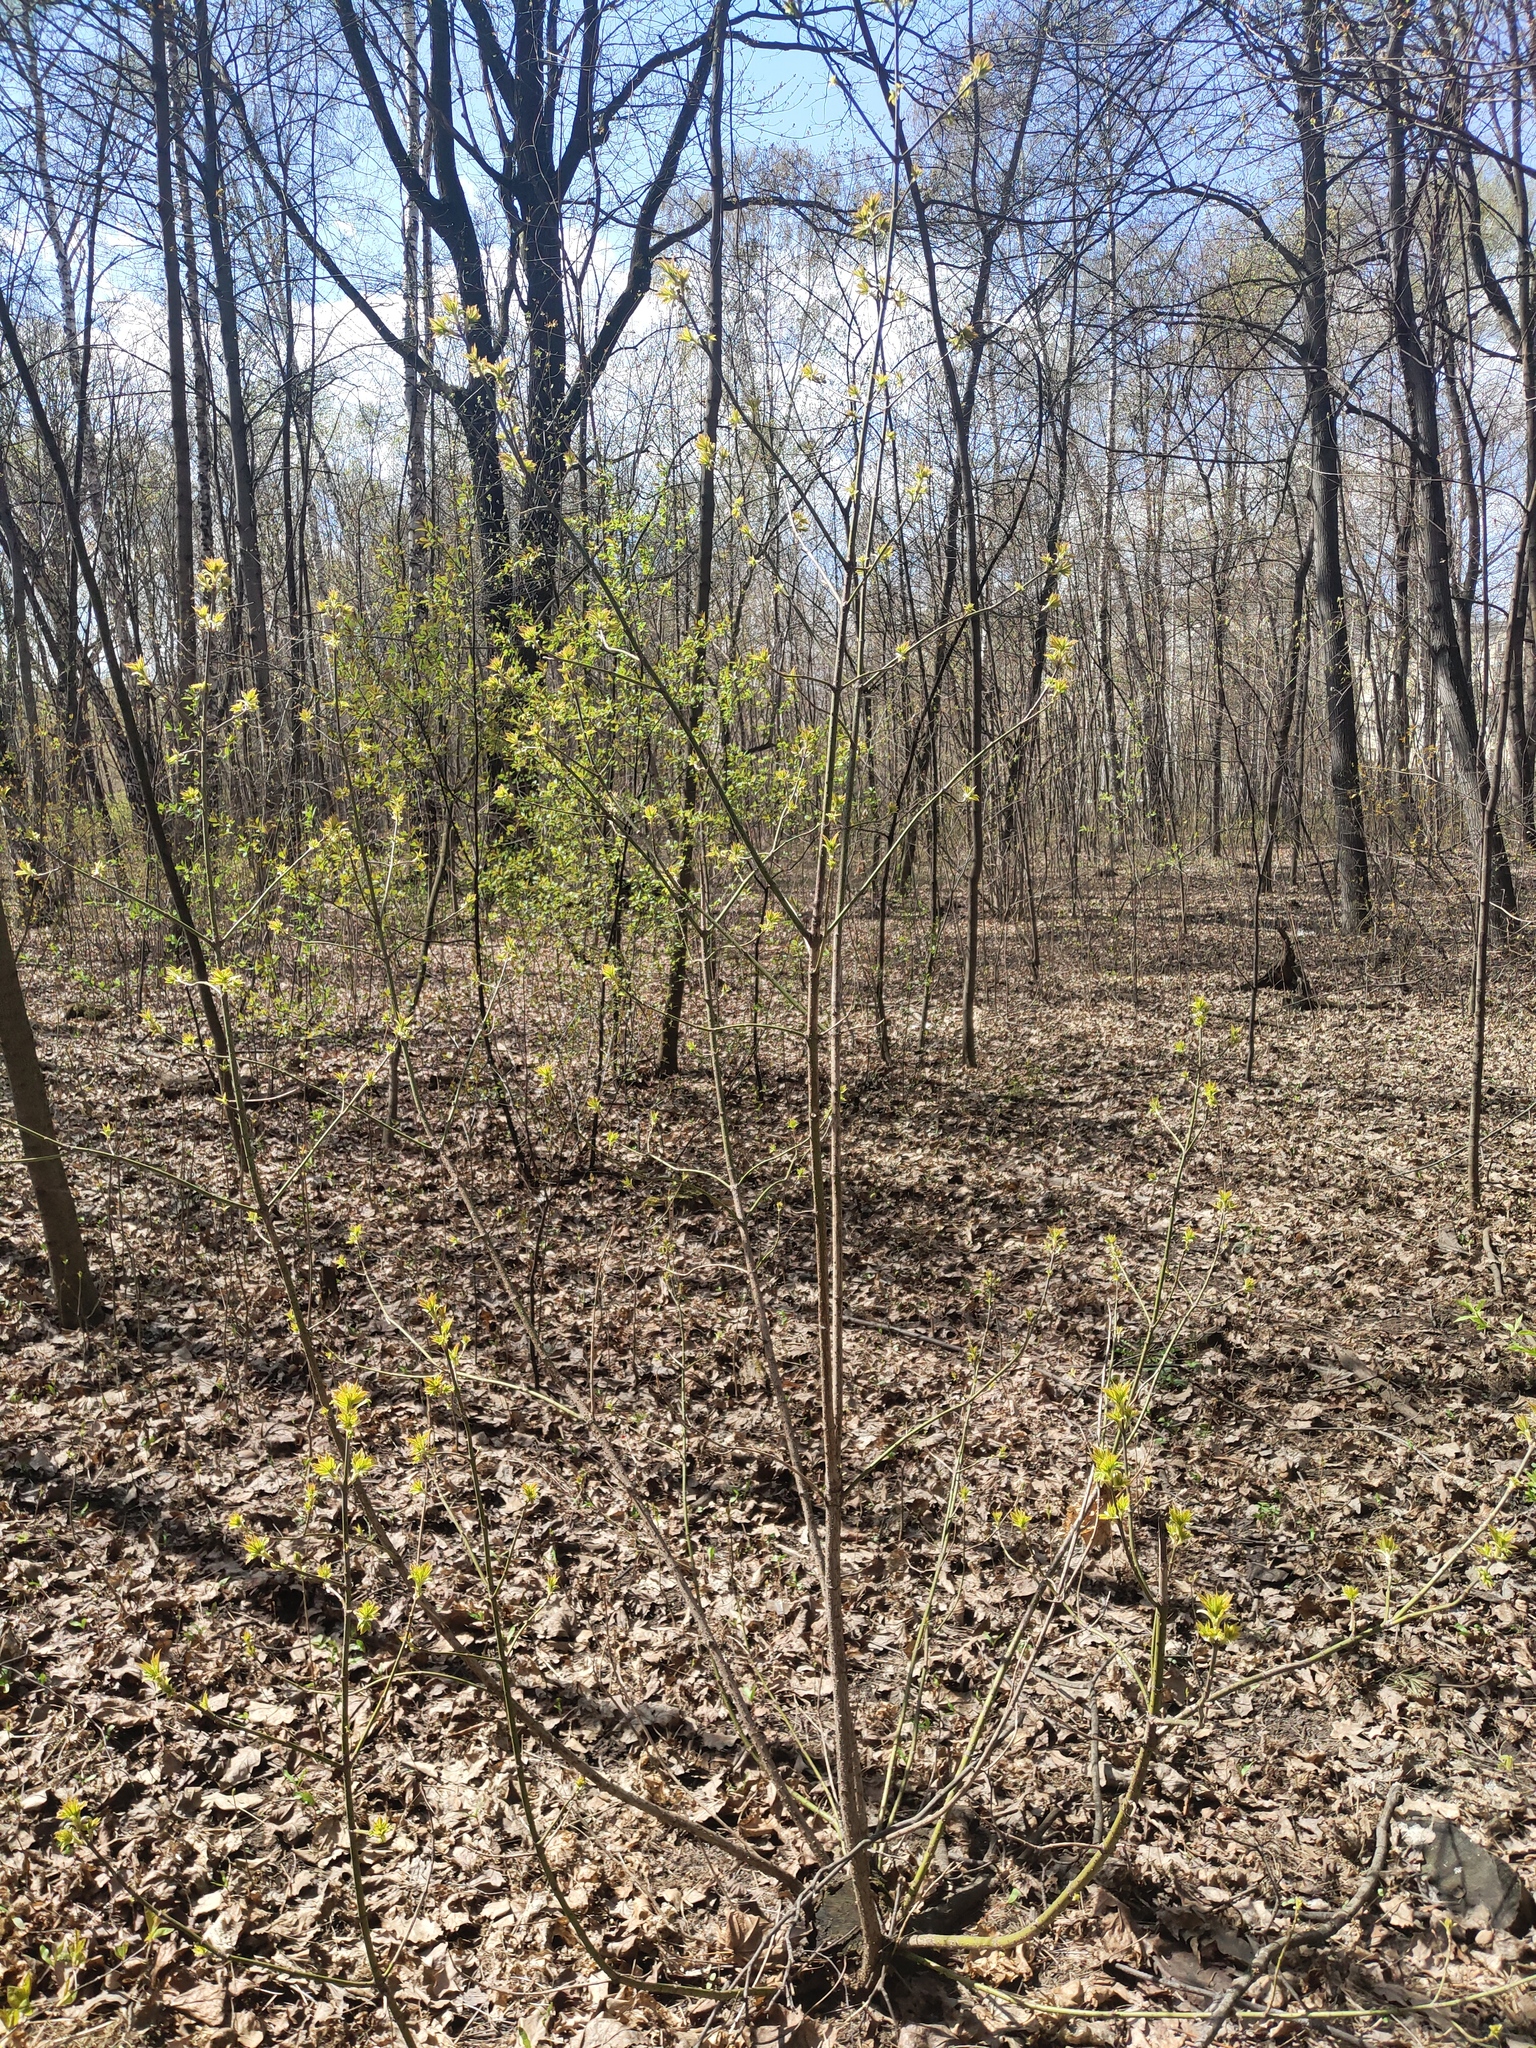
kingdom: Plantae
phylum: Tracheophyta
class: Magnoliopsida
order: Sapindales
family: Sapindaceae
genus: Acer
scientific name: Acer negundo
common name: Ashleaf maple
